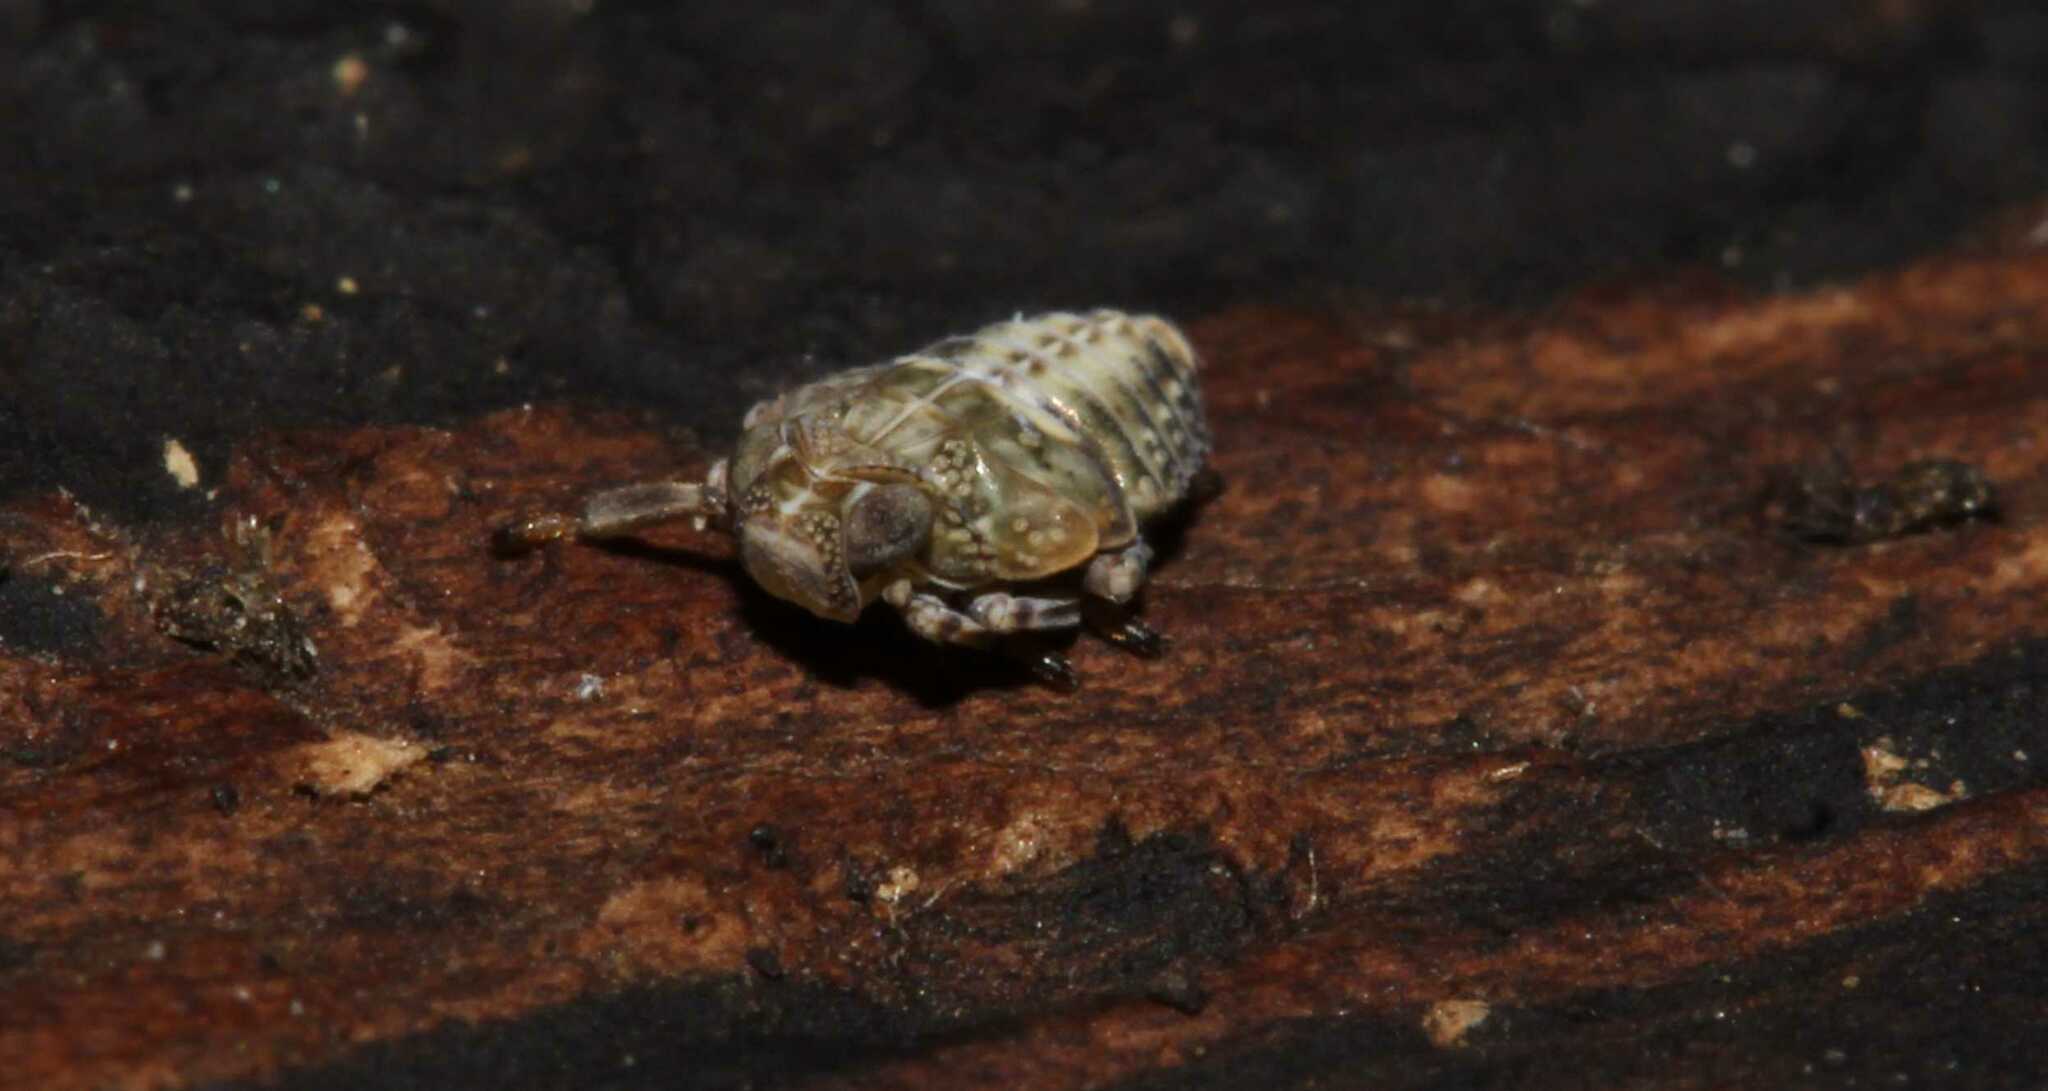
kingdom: Animalia
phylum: Arthropoda
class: Insecta
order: Hemiptera
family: Issidae
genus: Issus
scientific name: Issus coleoptratus
